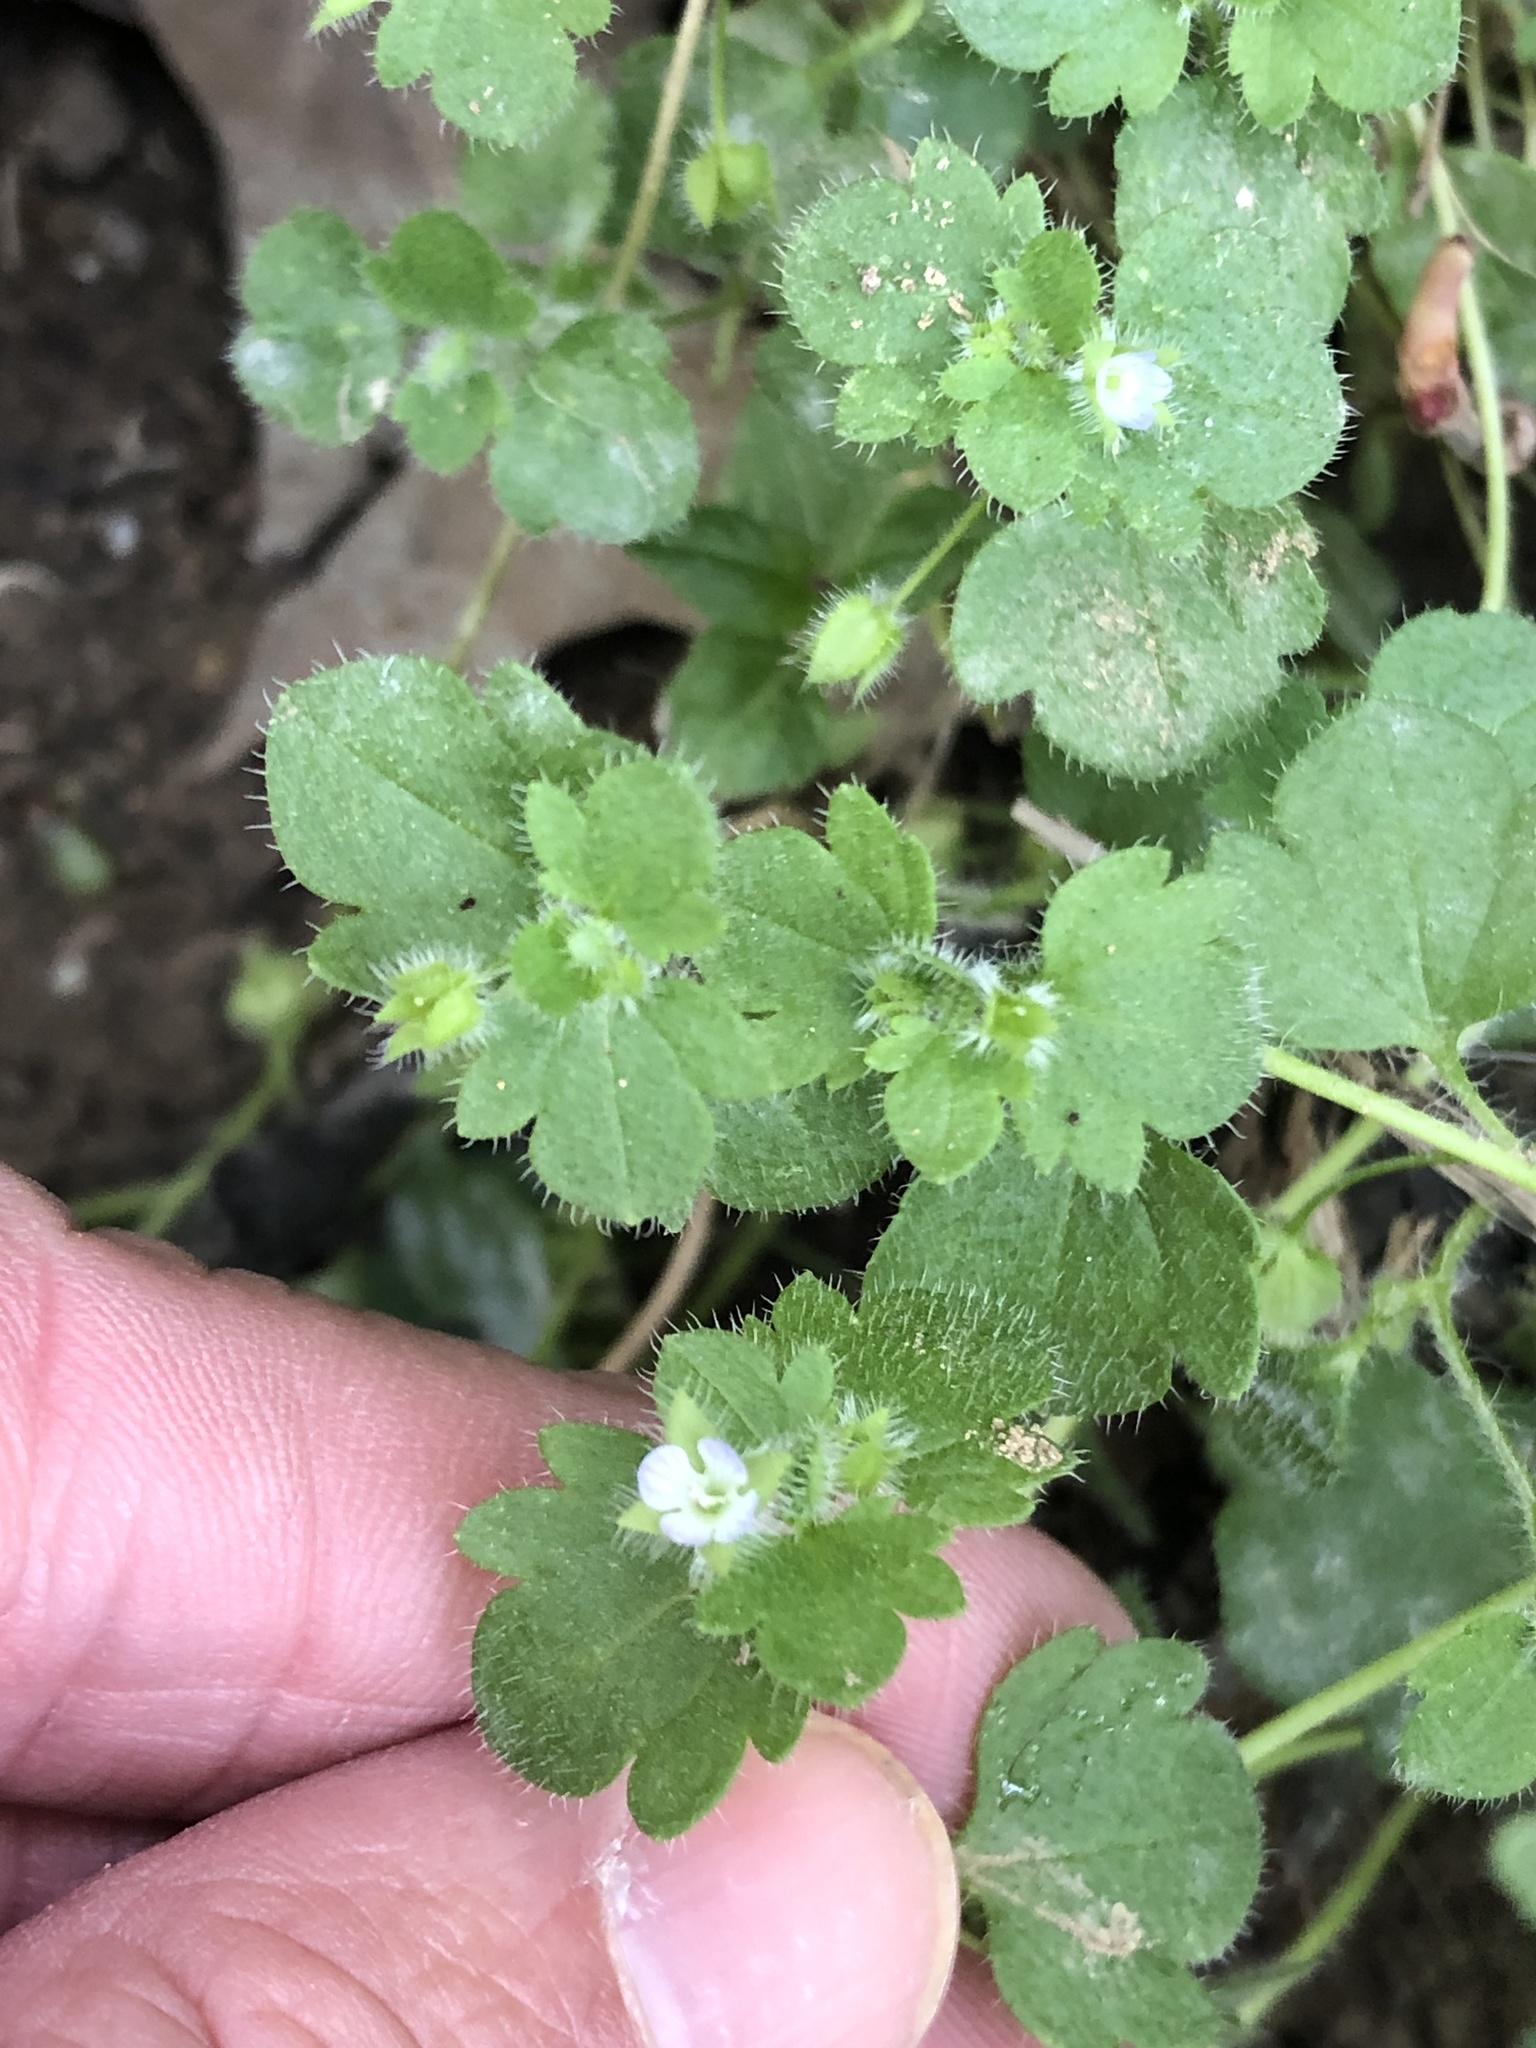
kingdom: Plantae
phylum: Tracheophyta
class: Magnoliopsida
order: Lamiales
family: Plantaginaceae
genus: Veronica
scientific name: Veronica hederifolia
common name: Ivy-leaved speedwell
